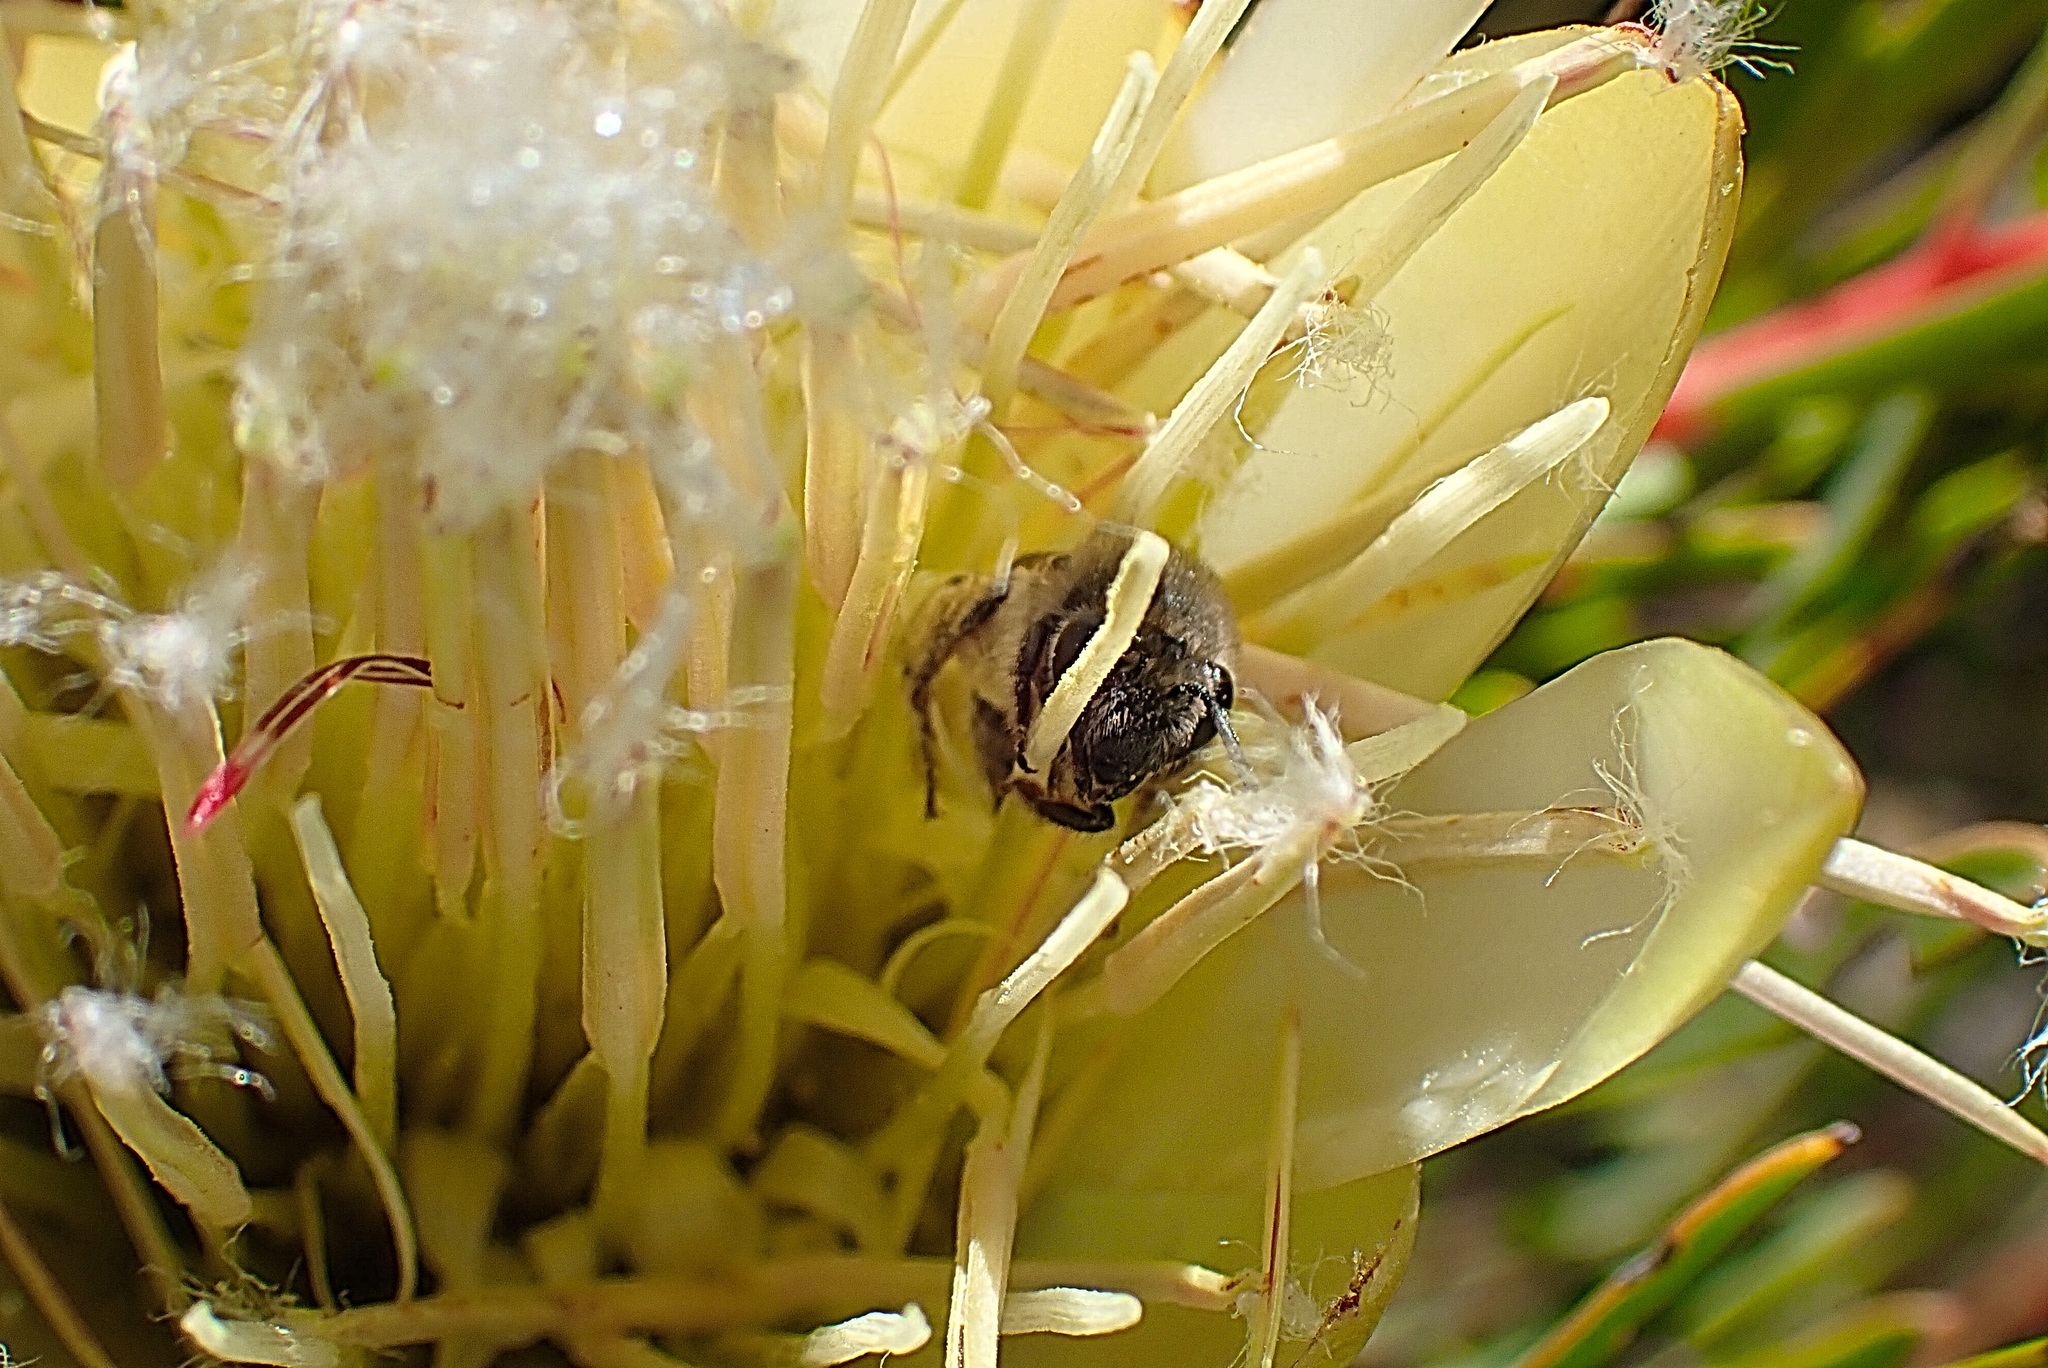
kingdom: Plantae
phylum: Tracheophyta
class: Magnoliopsida
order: Proteales
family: Proteaceae
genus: Protea
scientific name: Protea repens
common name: Sugarbush
